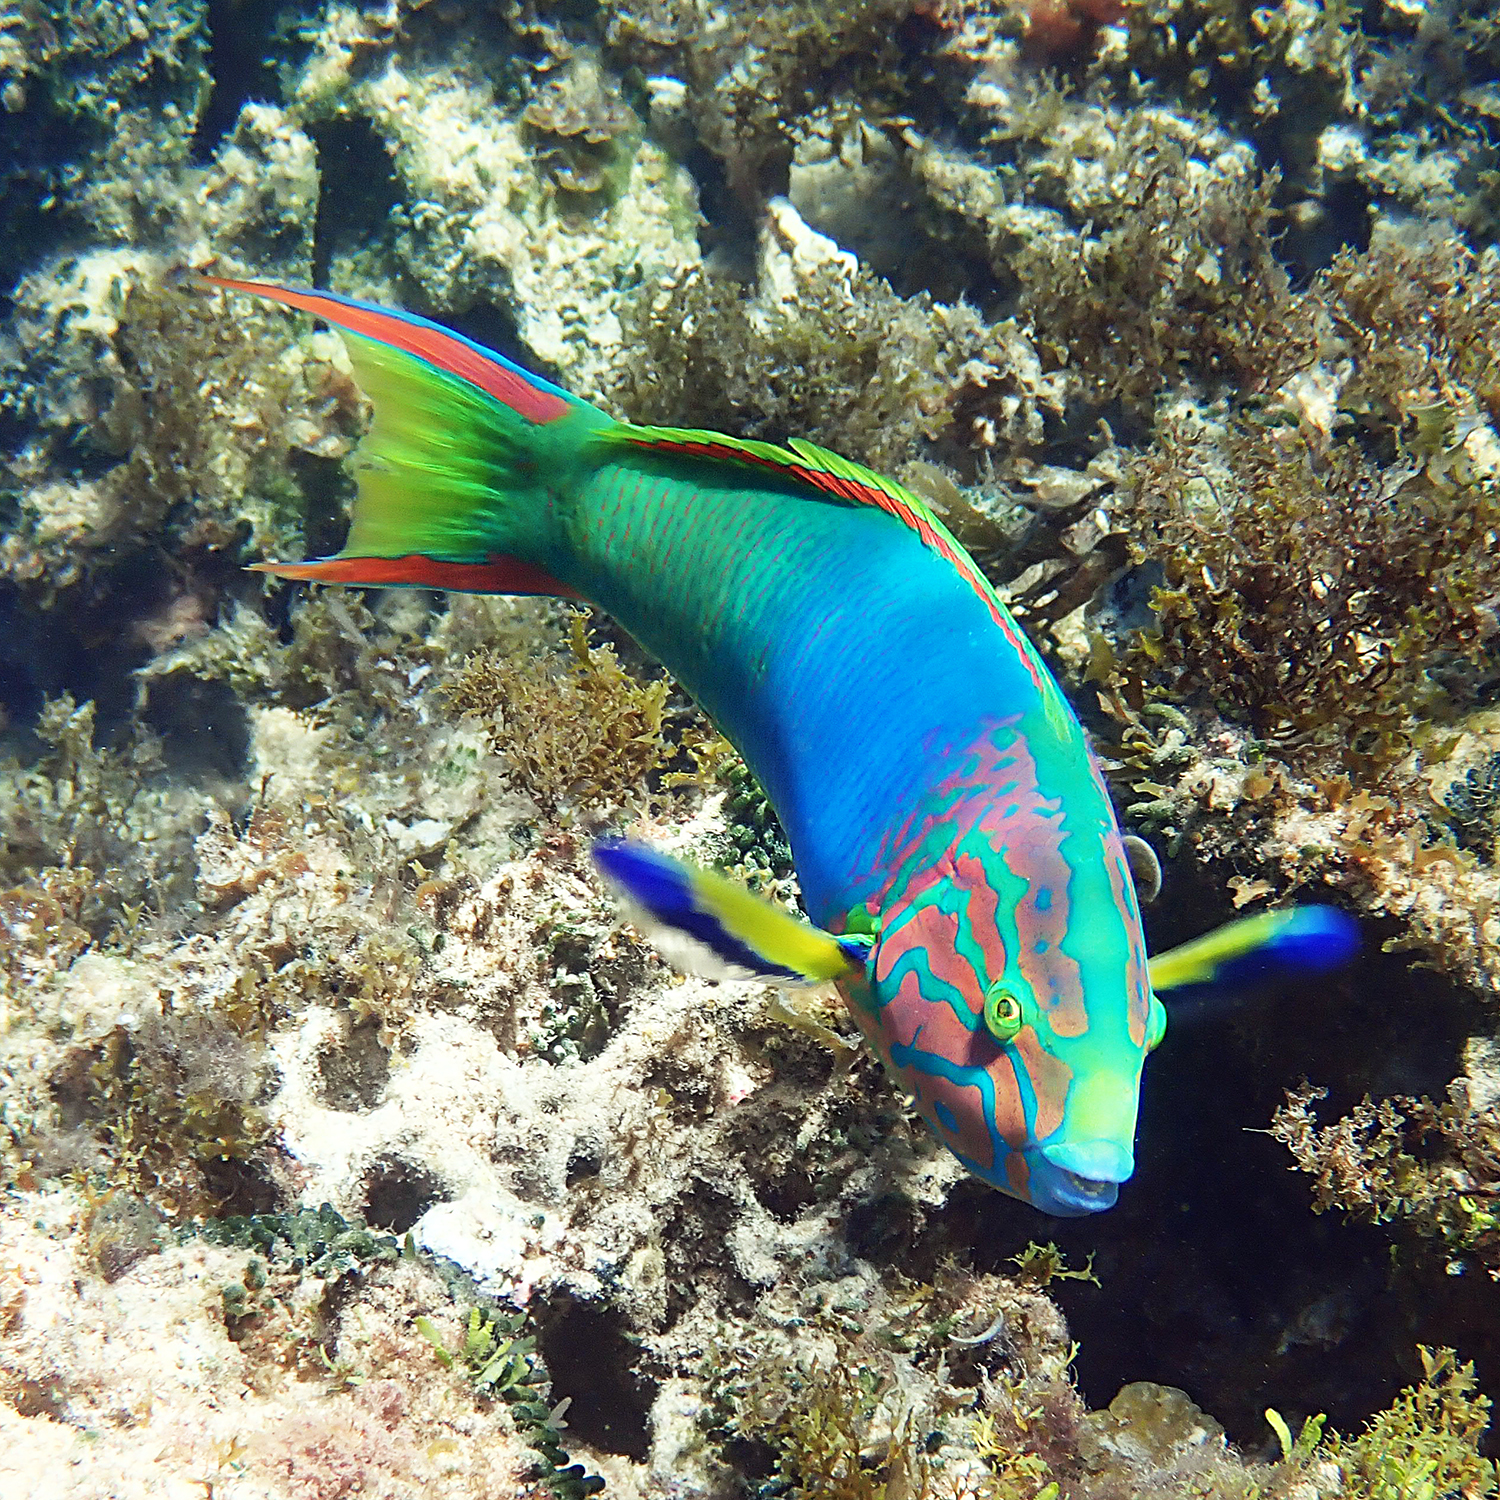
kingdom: Animalia
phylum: Chordata
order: Perciformes
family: Labridae
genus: Thalassoma
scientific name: Thalassoma lutescens
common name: Green moon wrasse
